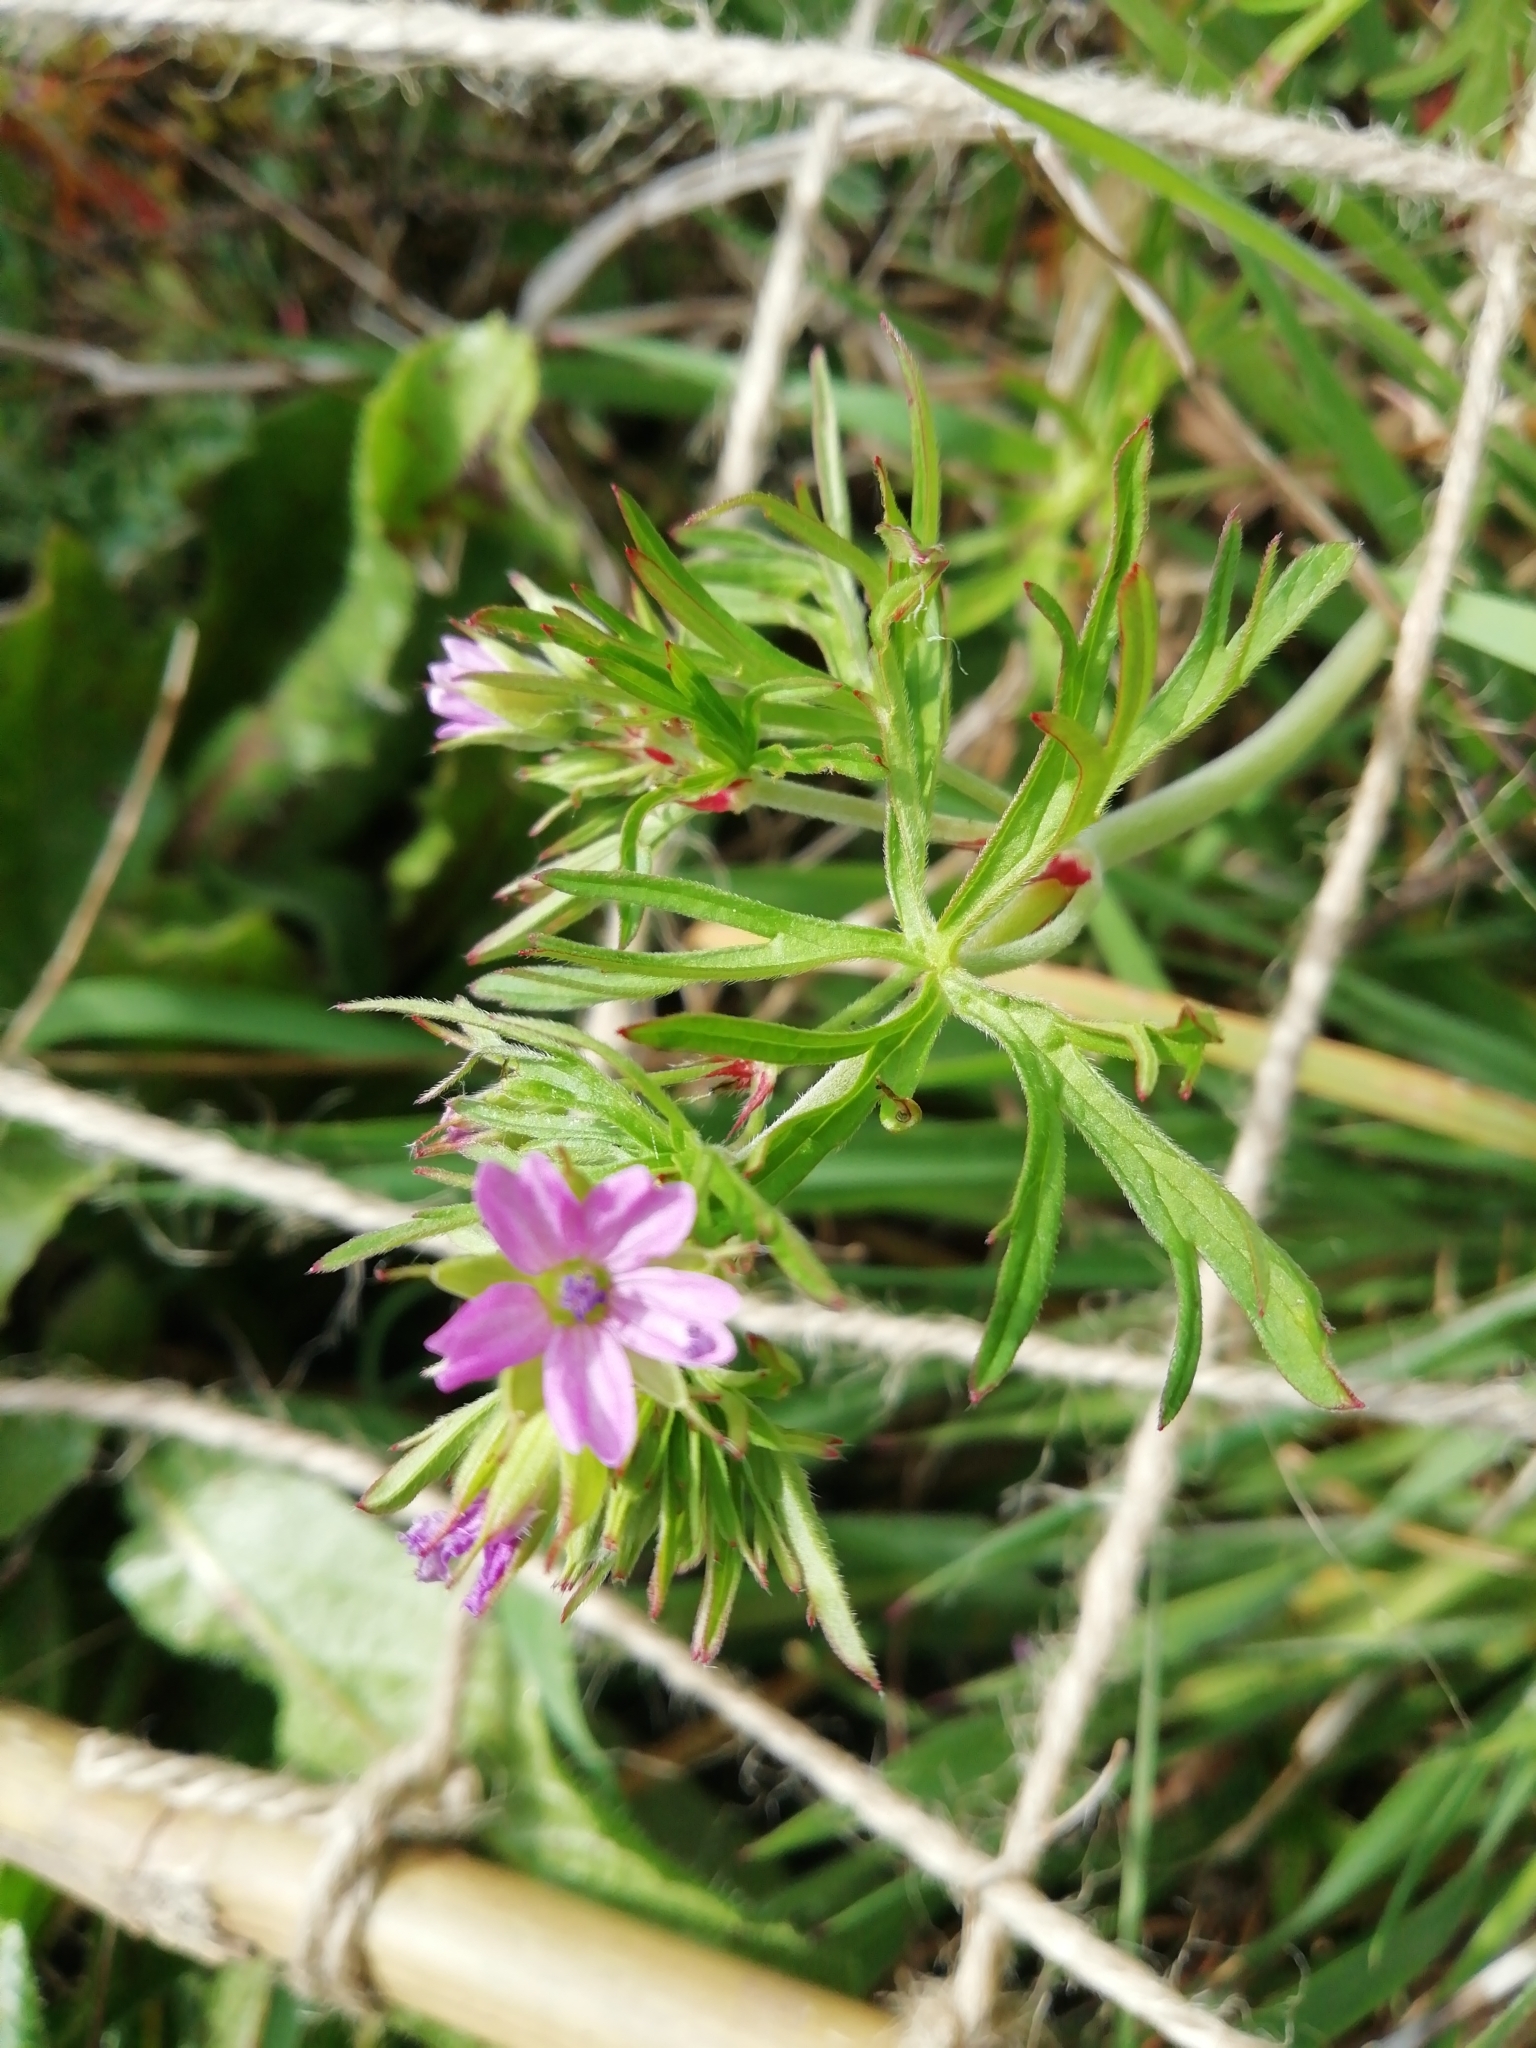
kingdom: Plantae
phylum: Tracheophyta
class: Magnoliopsida
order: Geraniales
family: Geraniaceae
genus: Geranium
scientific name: Geranium dissectum
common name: Cut-leaved crane's-bill
